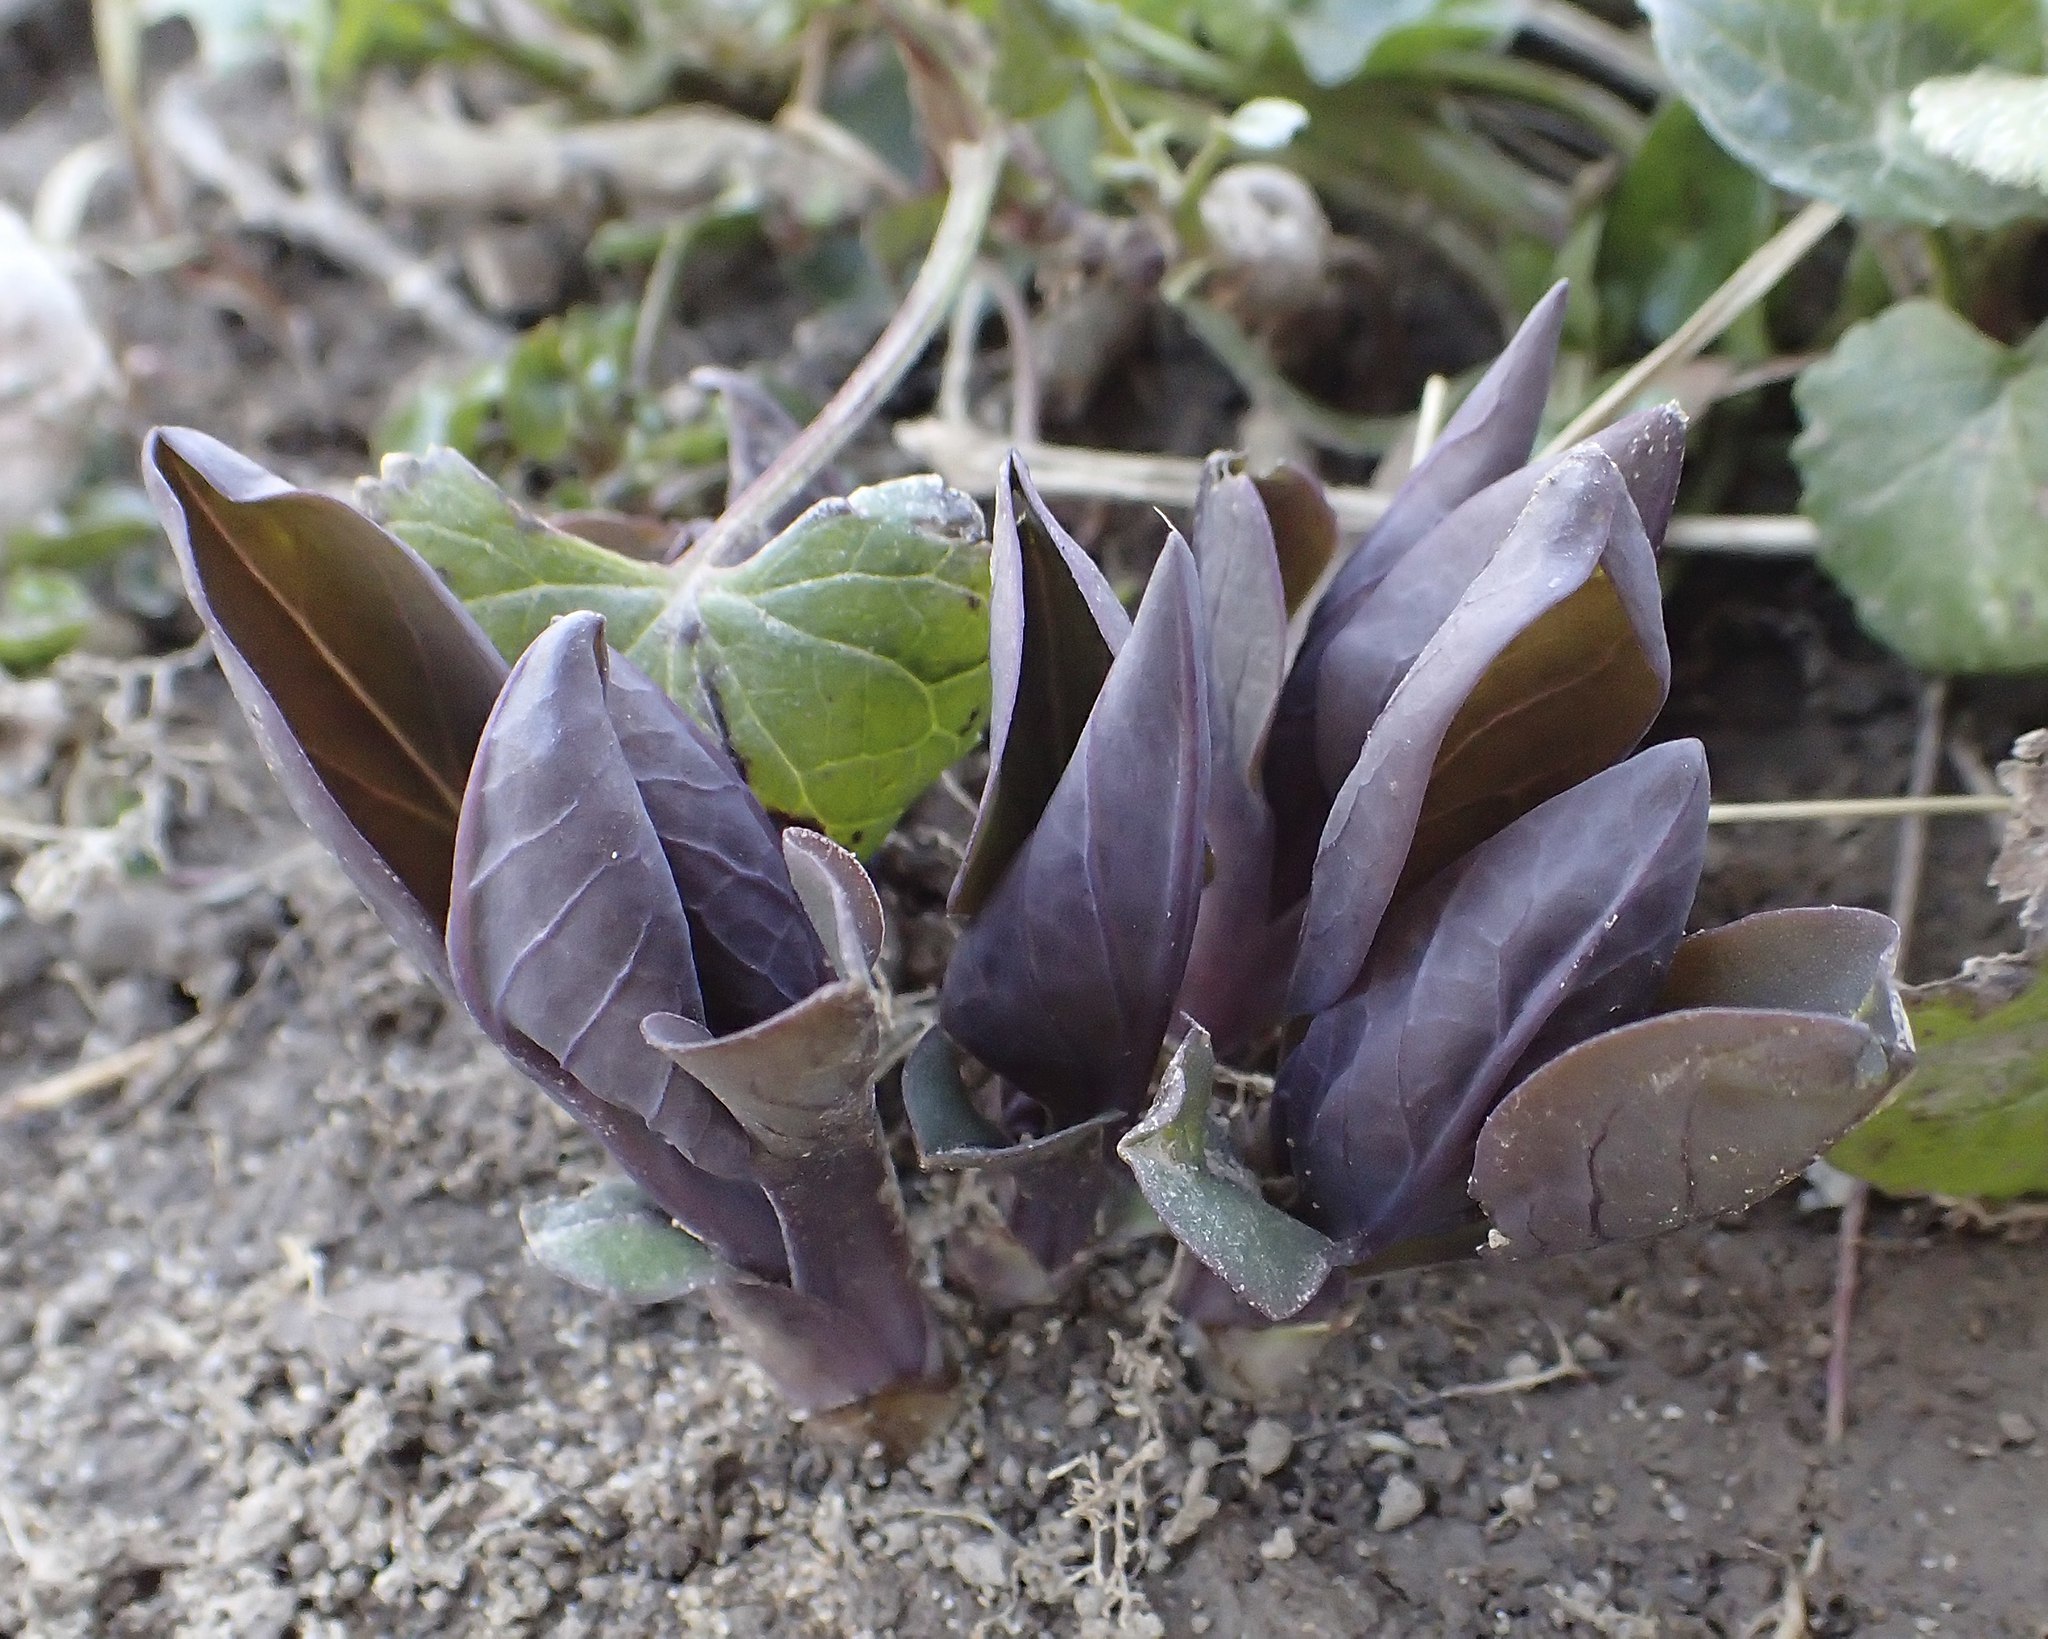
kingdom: Plantae
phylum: Tracheophyta
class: Magnoliopsida
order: Boraginales
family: Boraginaceae
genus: Mertensia
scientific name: Mertensia virginica
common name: Virginia bluebells
